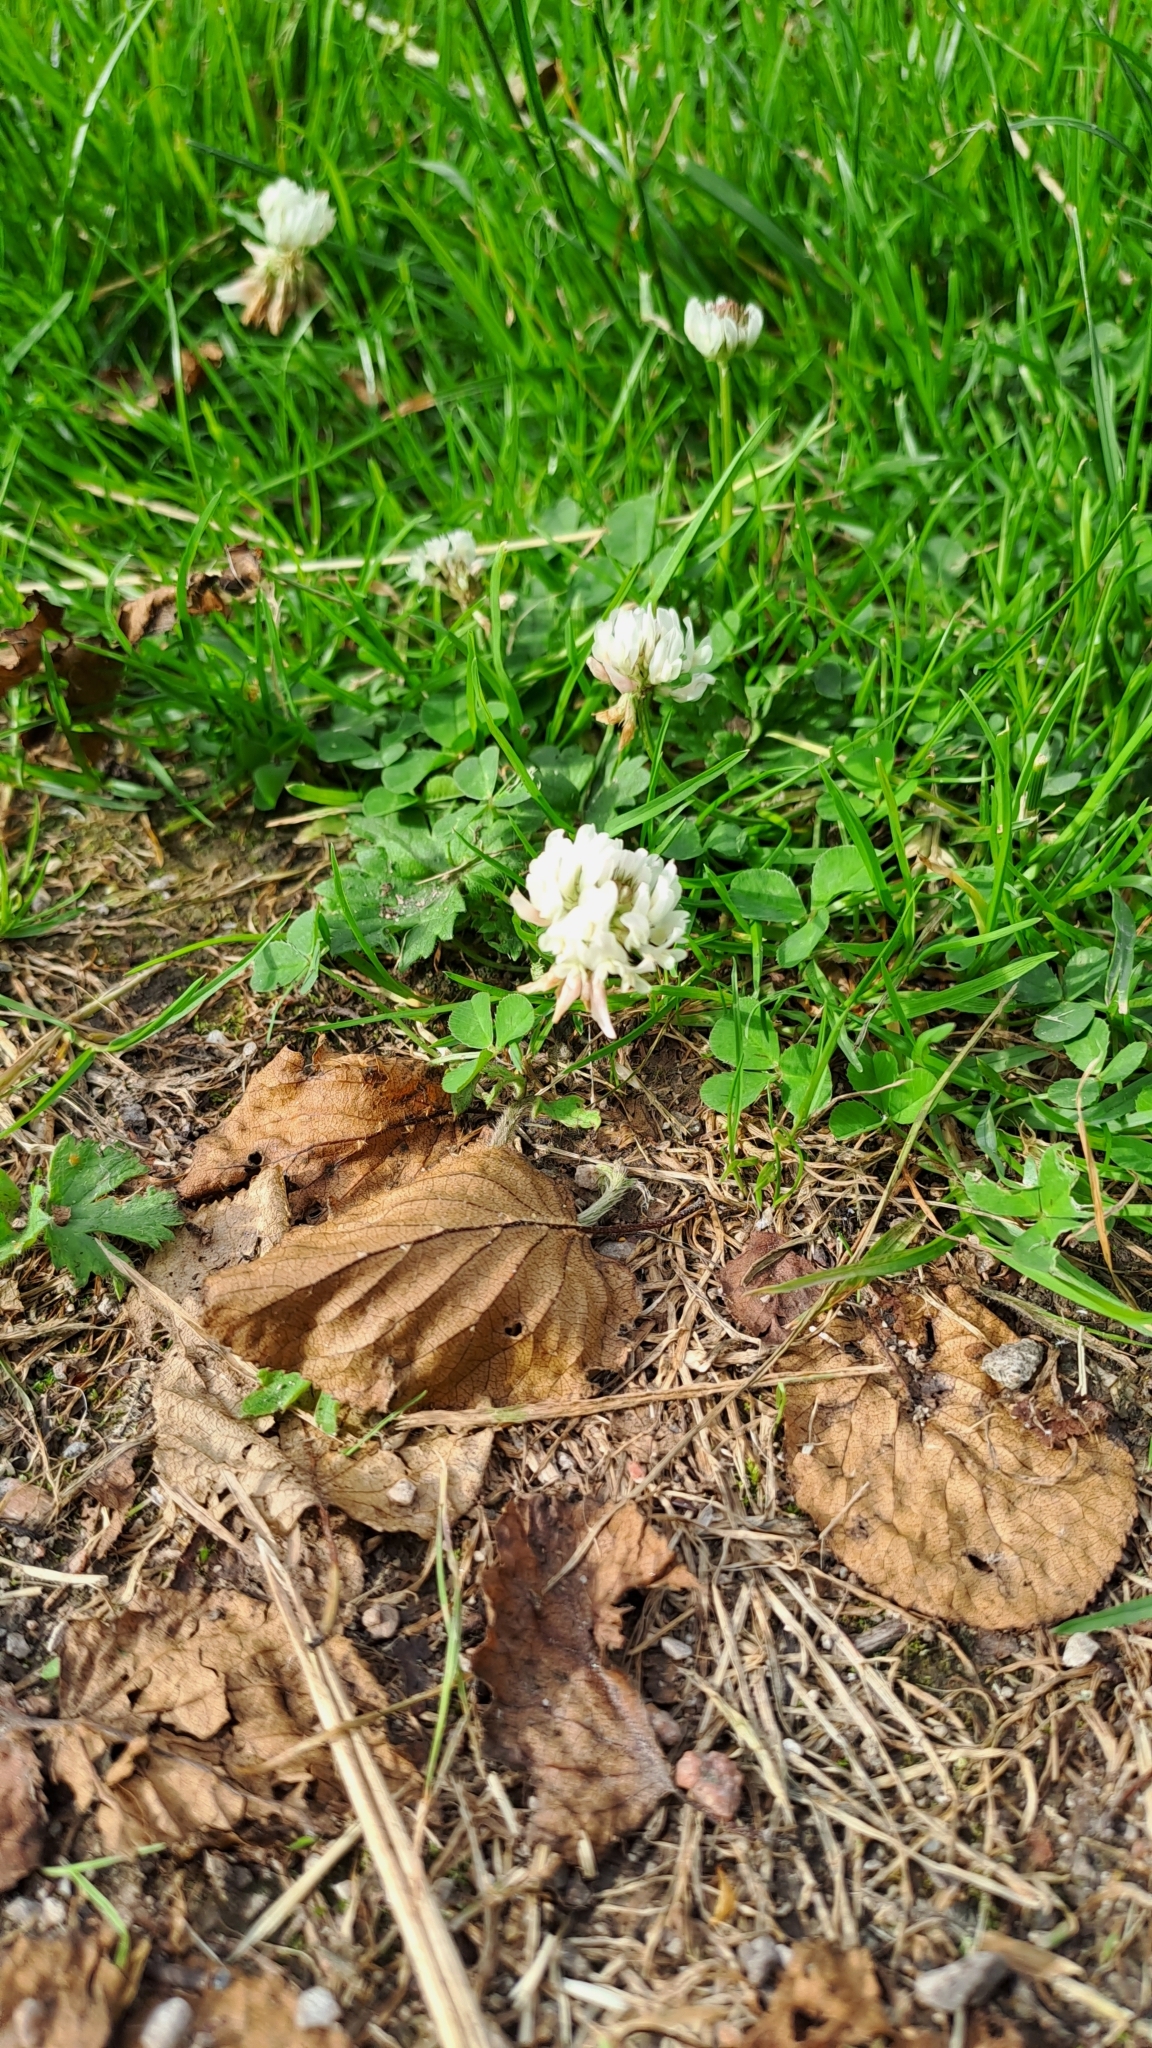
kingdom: Plantae
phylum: Tracheophyta
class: Magnoliopsida
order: Fabales
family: Fabaceae
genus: Trifolium
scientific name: Trifolium repens
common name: White clover
